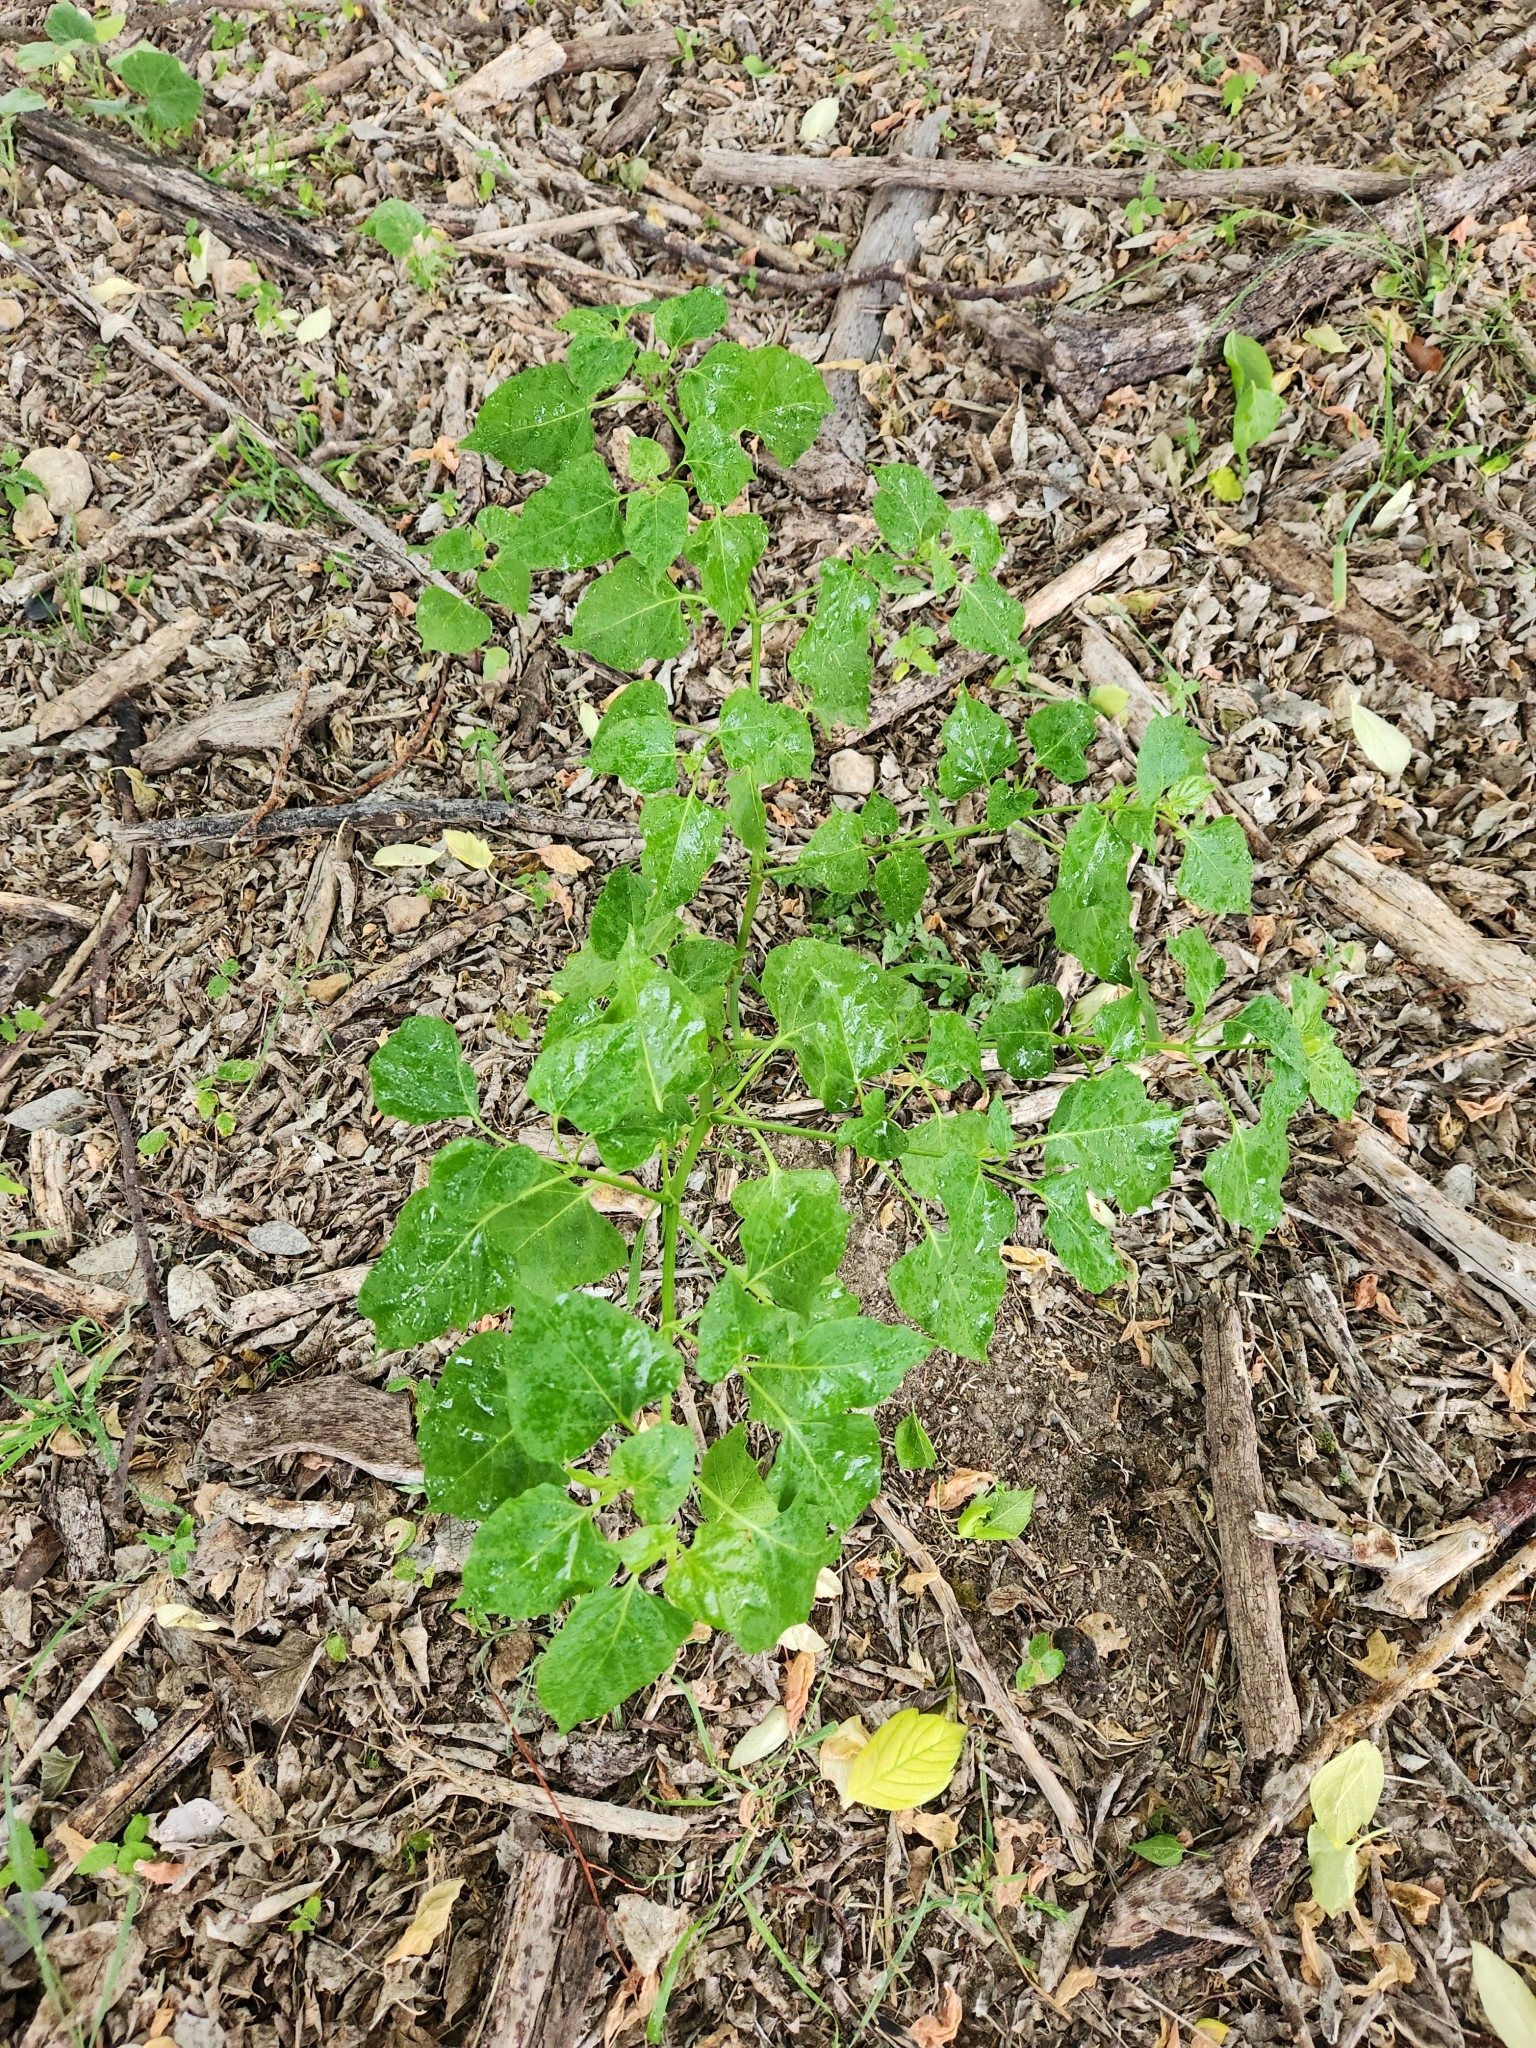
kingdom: Plantae
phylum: Tracheophyta
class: Magnoliopsida
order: Caryophyllales
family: Nyctaginaceae
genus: Mirabilis
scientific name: Mirabilis jalapa
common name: Marvel-of-peru
